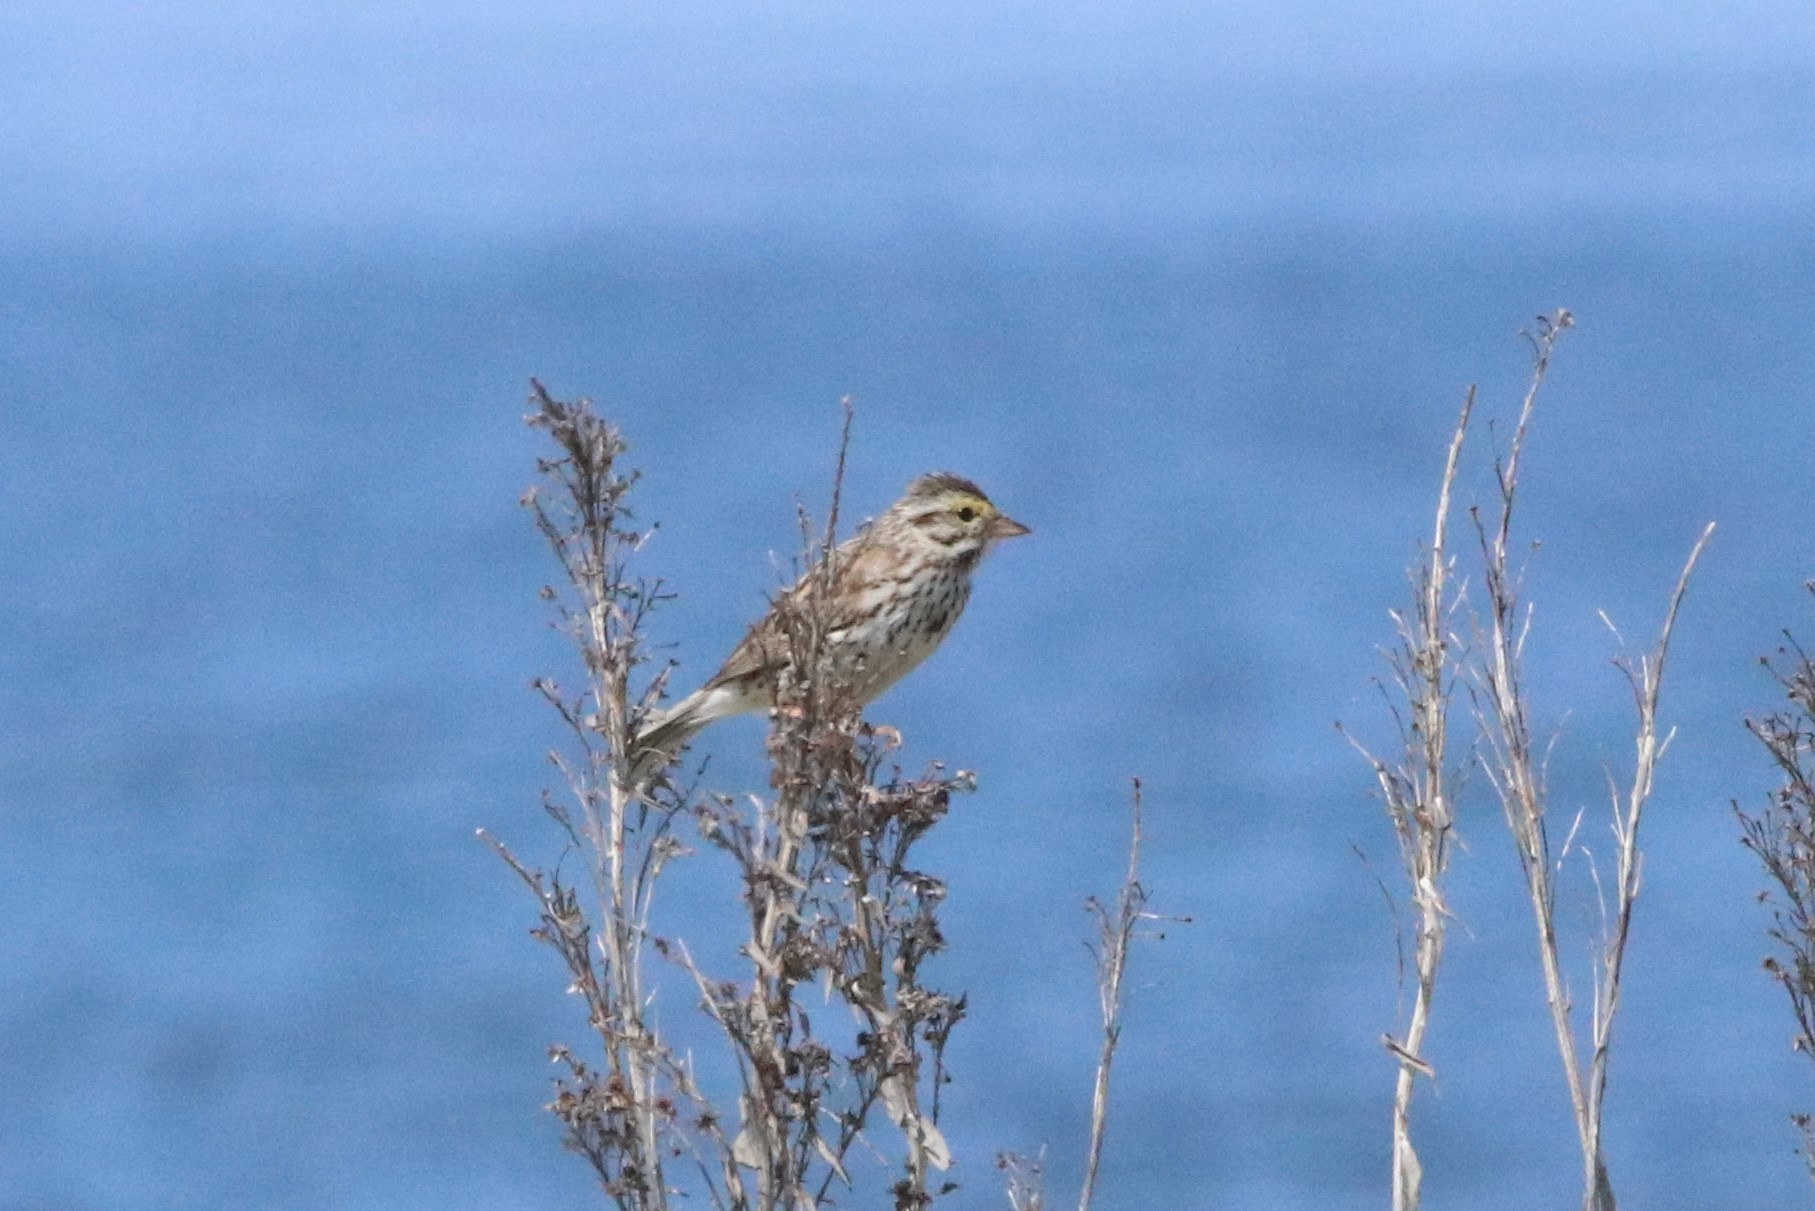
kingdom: Animalia
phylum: Chordata
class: Aves
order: Passeriformes
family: Passerellidae
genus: Passerculus
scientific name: Passerculus sandwichensis
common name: Savannah sparrow
